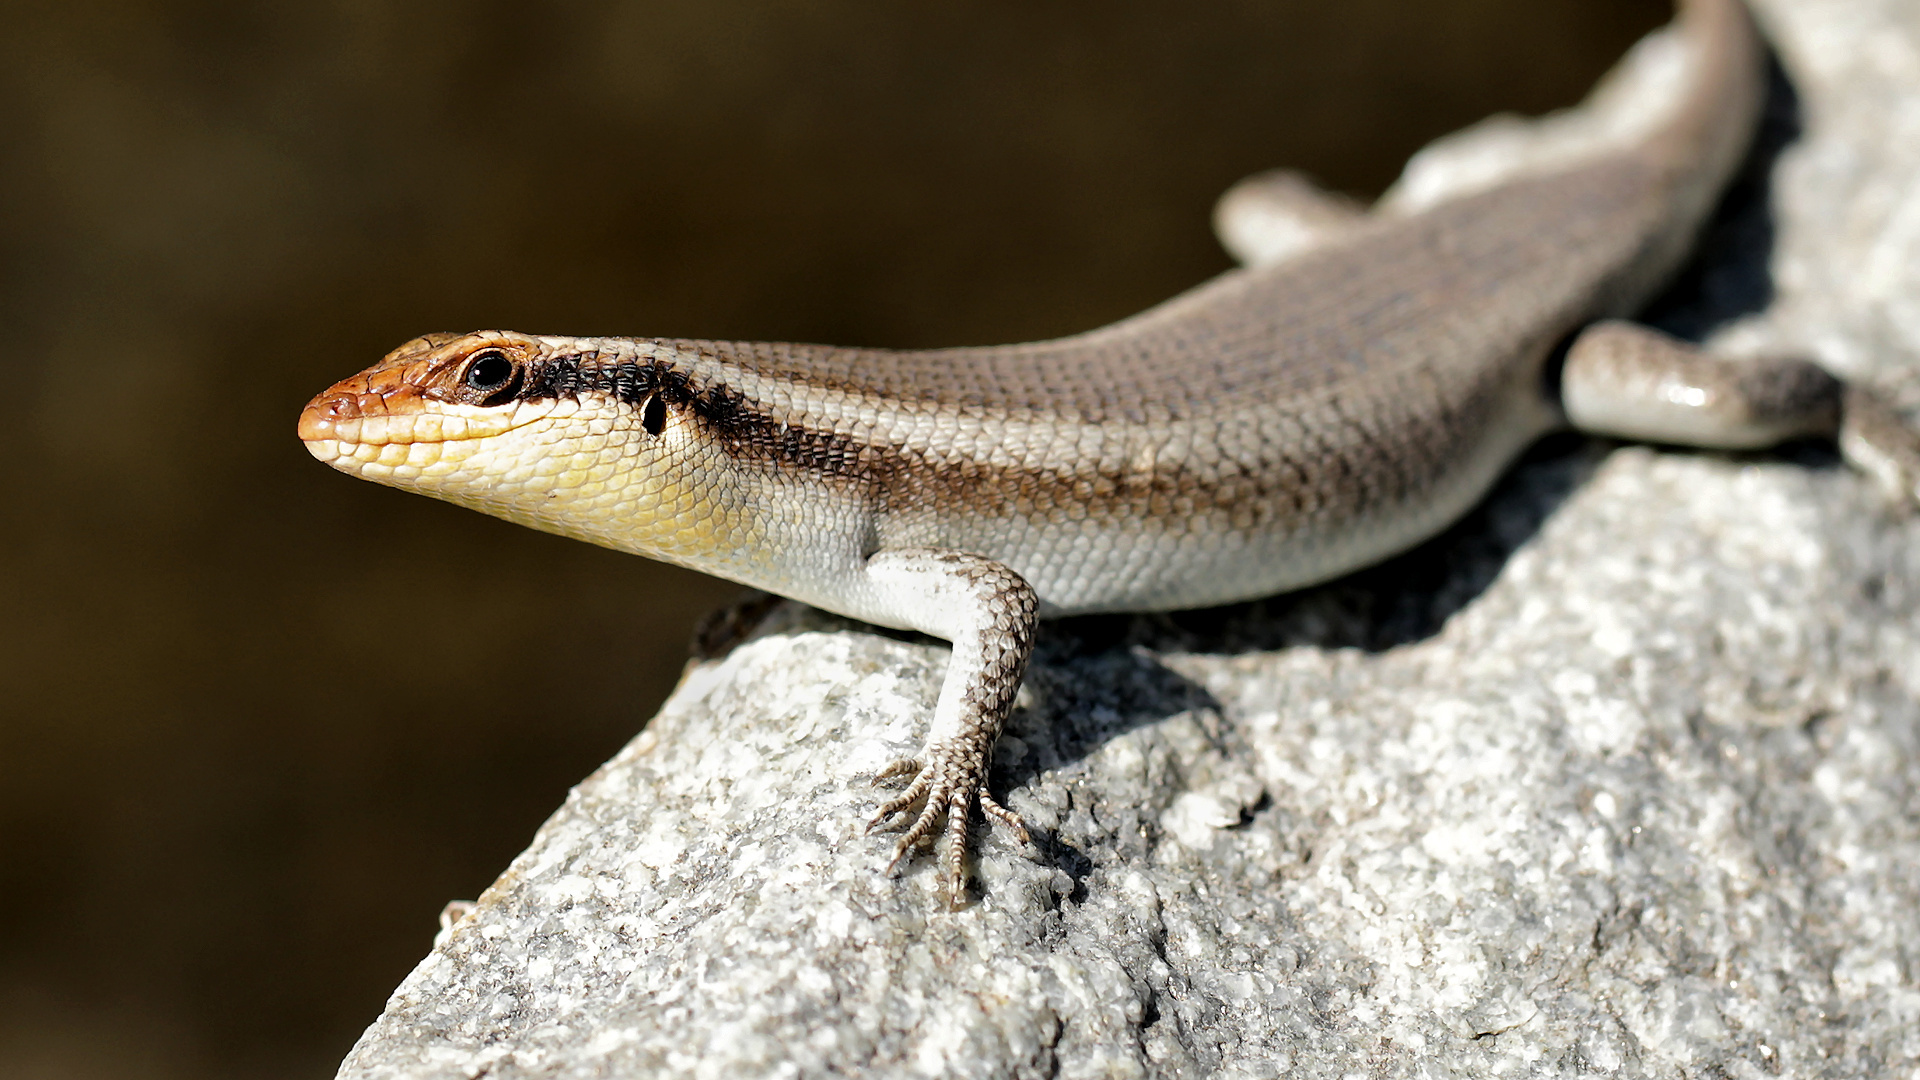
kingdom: Animalia
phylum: Chordata
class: Squamata
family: Scincidae
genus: Trachylepis
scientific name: Trachylepis wahlbergii
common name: Wahlberg’s striped skink
